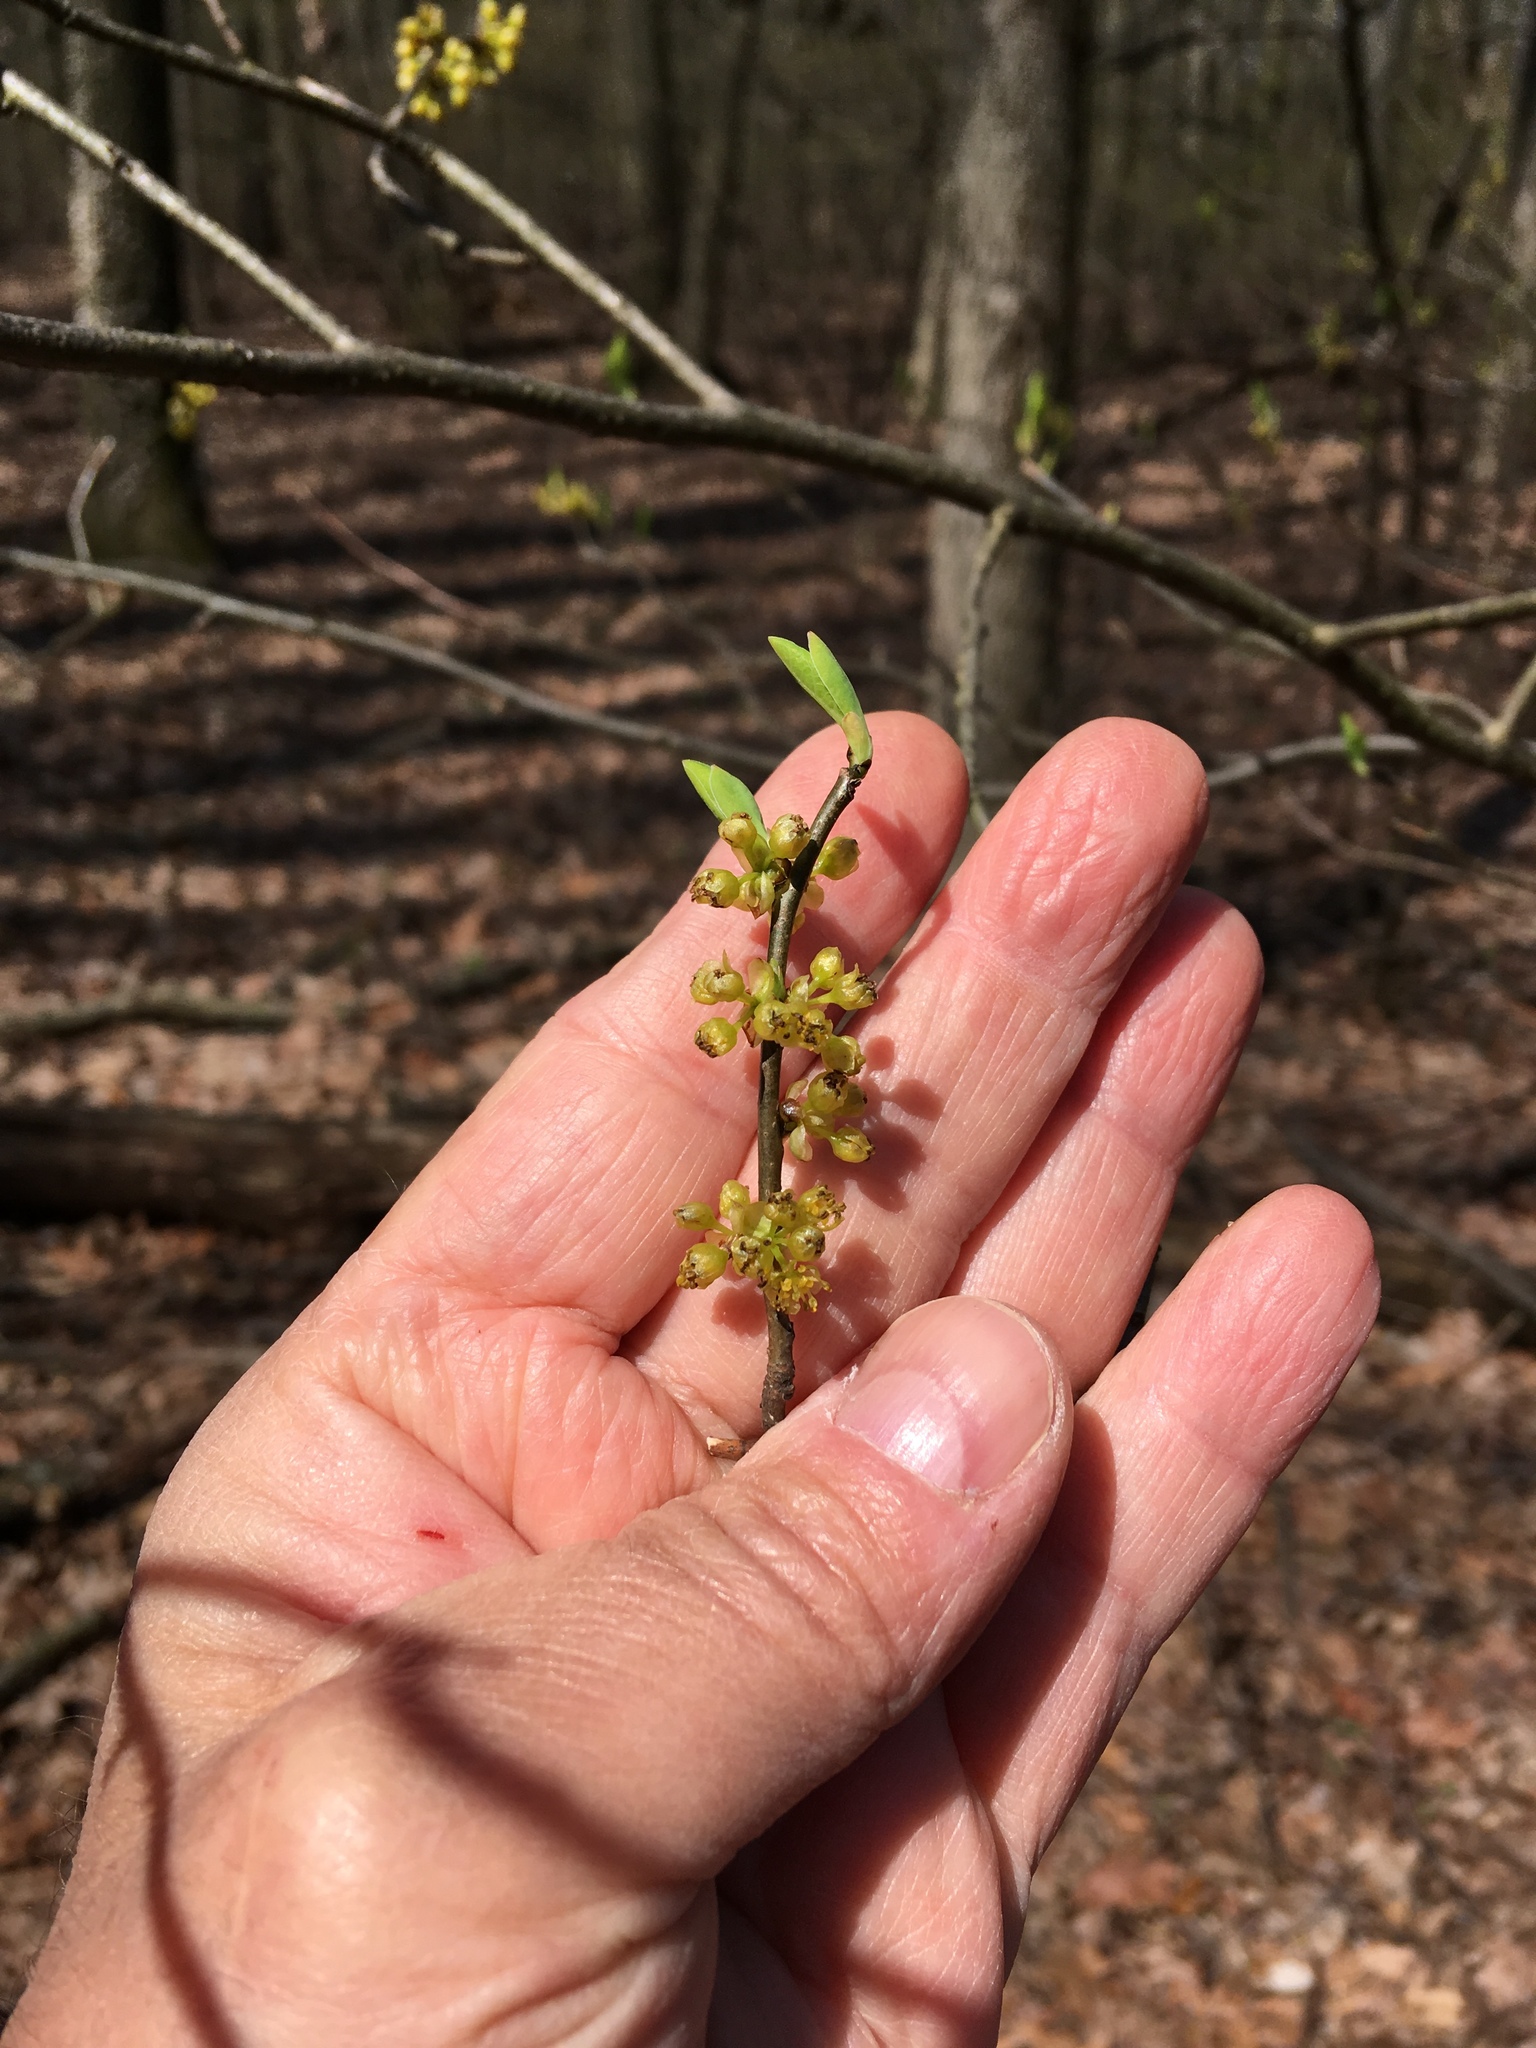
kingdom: Plantae
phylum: Tracheophyta
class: Magnoliopsida
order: Laurales
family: Lauraceae
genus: Lindera
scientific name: Lindera benzoin
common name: Spicebush
